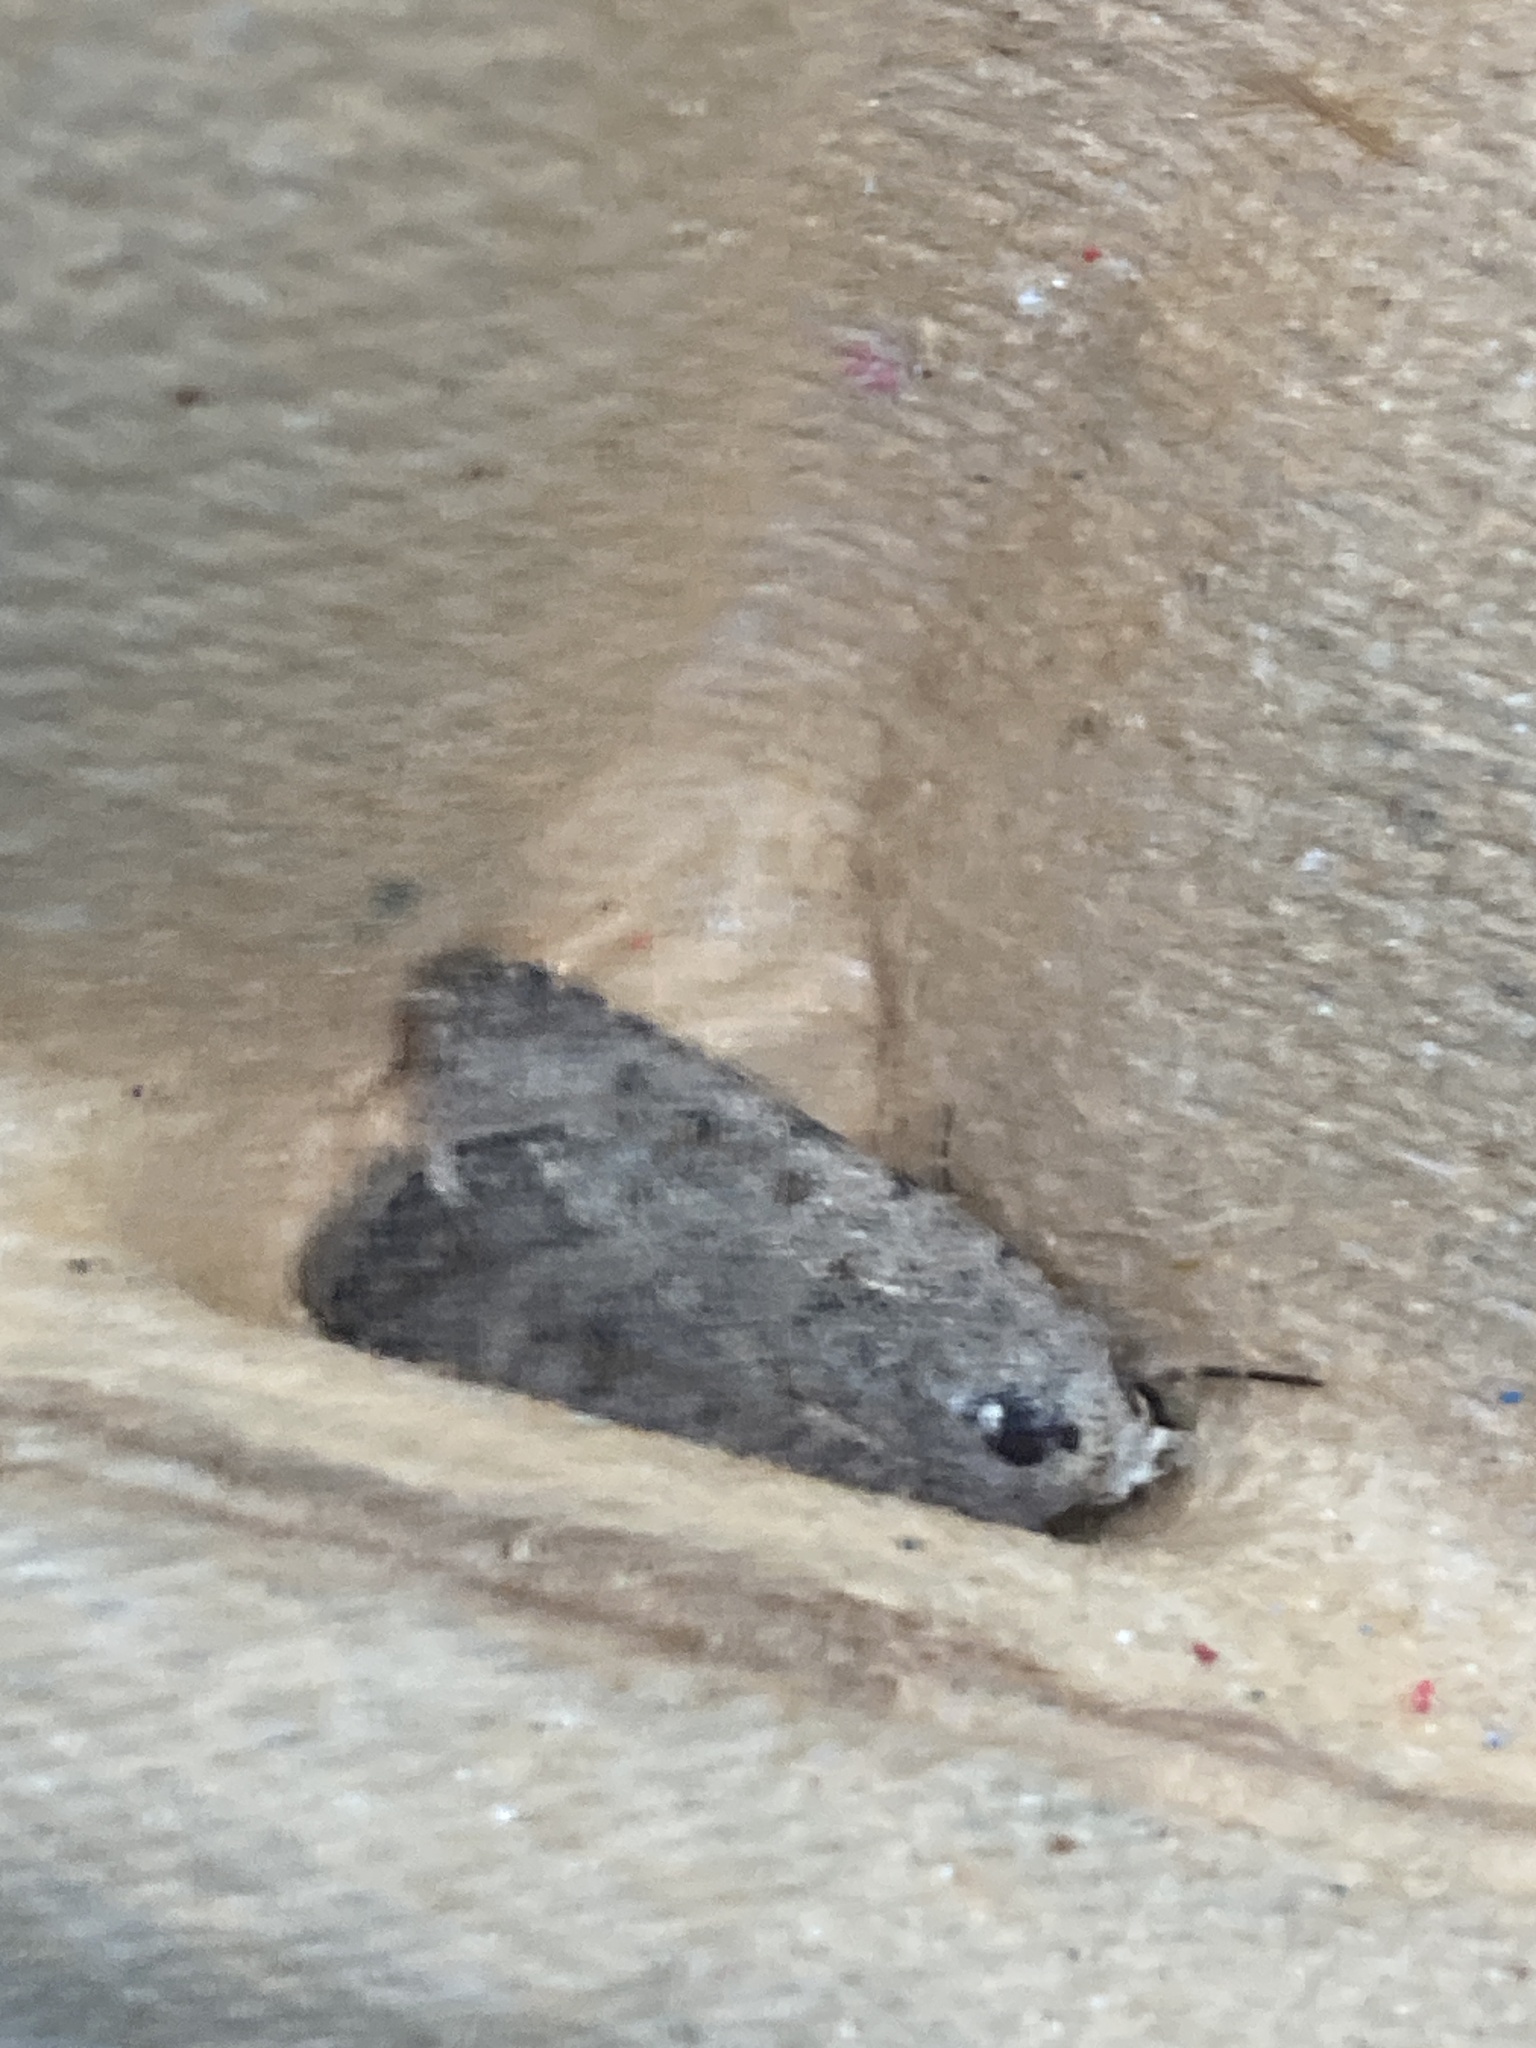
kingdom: Animalia
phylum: Arthropoda
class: Insecta
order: Lepidoptera
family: Noctuidae
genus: Caradrina
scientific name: Caradrina clavipalpis
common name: Pale mottled willow
